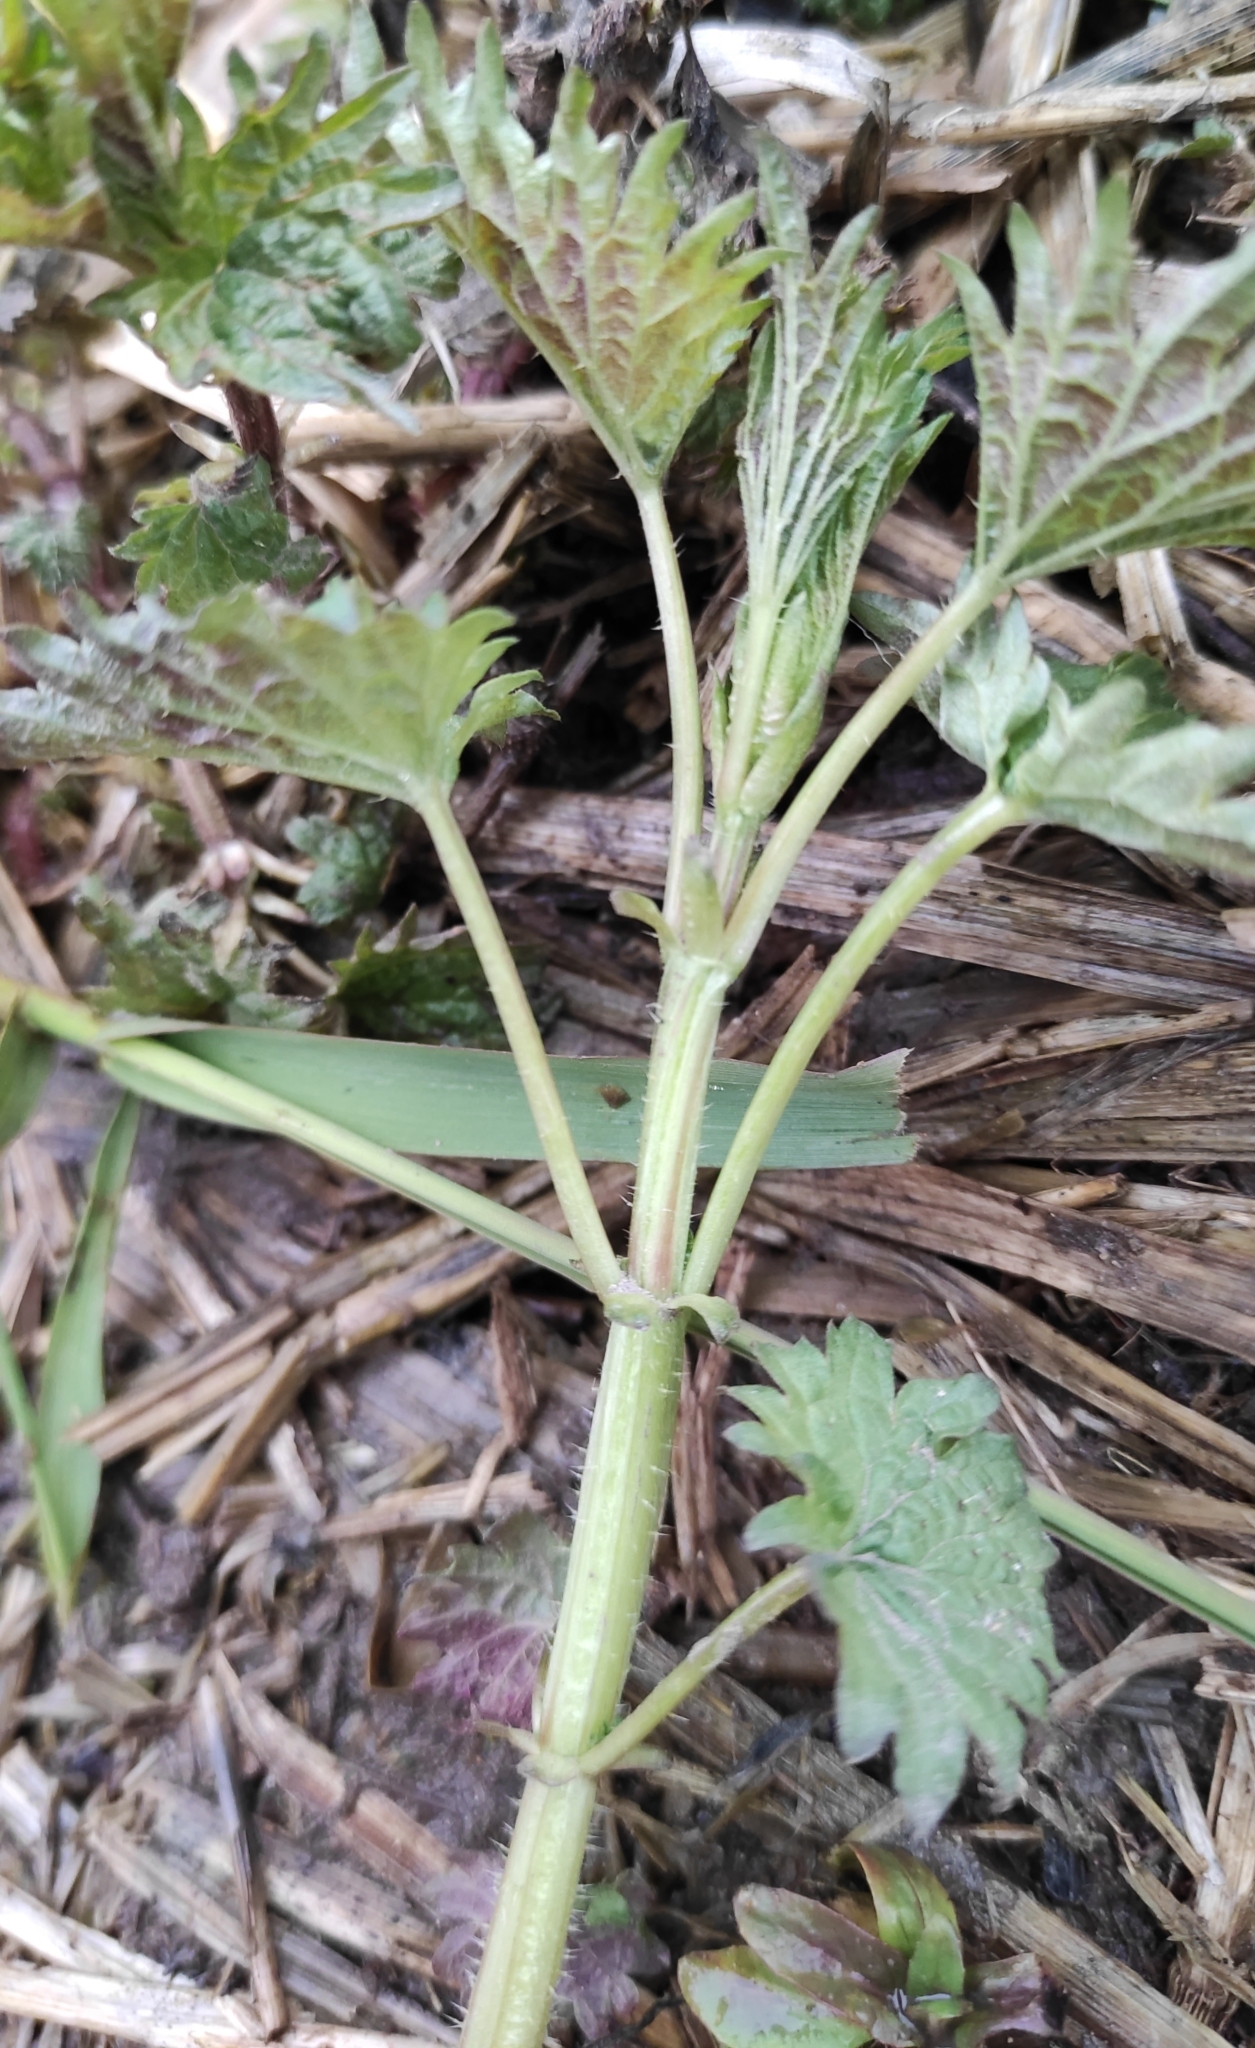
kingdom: Plantae
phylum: Tracheophyta
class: Magnoliopsida
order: Rosales
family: Urticaceae
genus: Urtica
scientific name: Urtica dioica
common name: Common nettle
